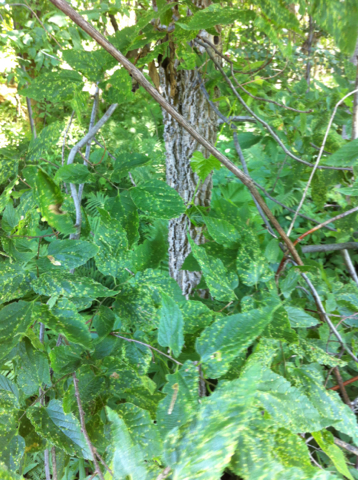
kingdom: Plantae
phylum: Tracheophyta
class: Magnoliopsida
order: Rosales
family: Cannabaceae
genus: Celtis
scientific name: Celtis occidentalis
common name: Common hackberry
